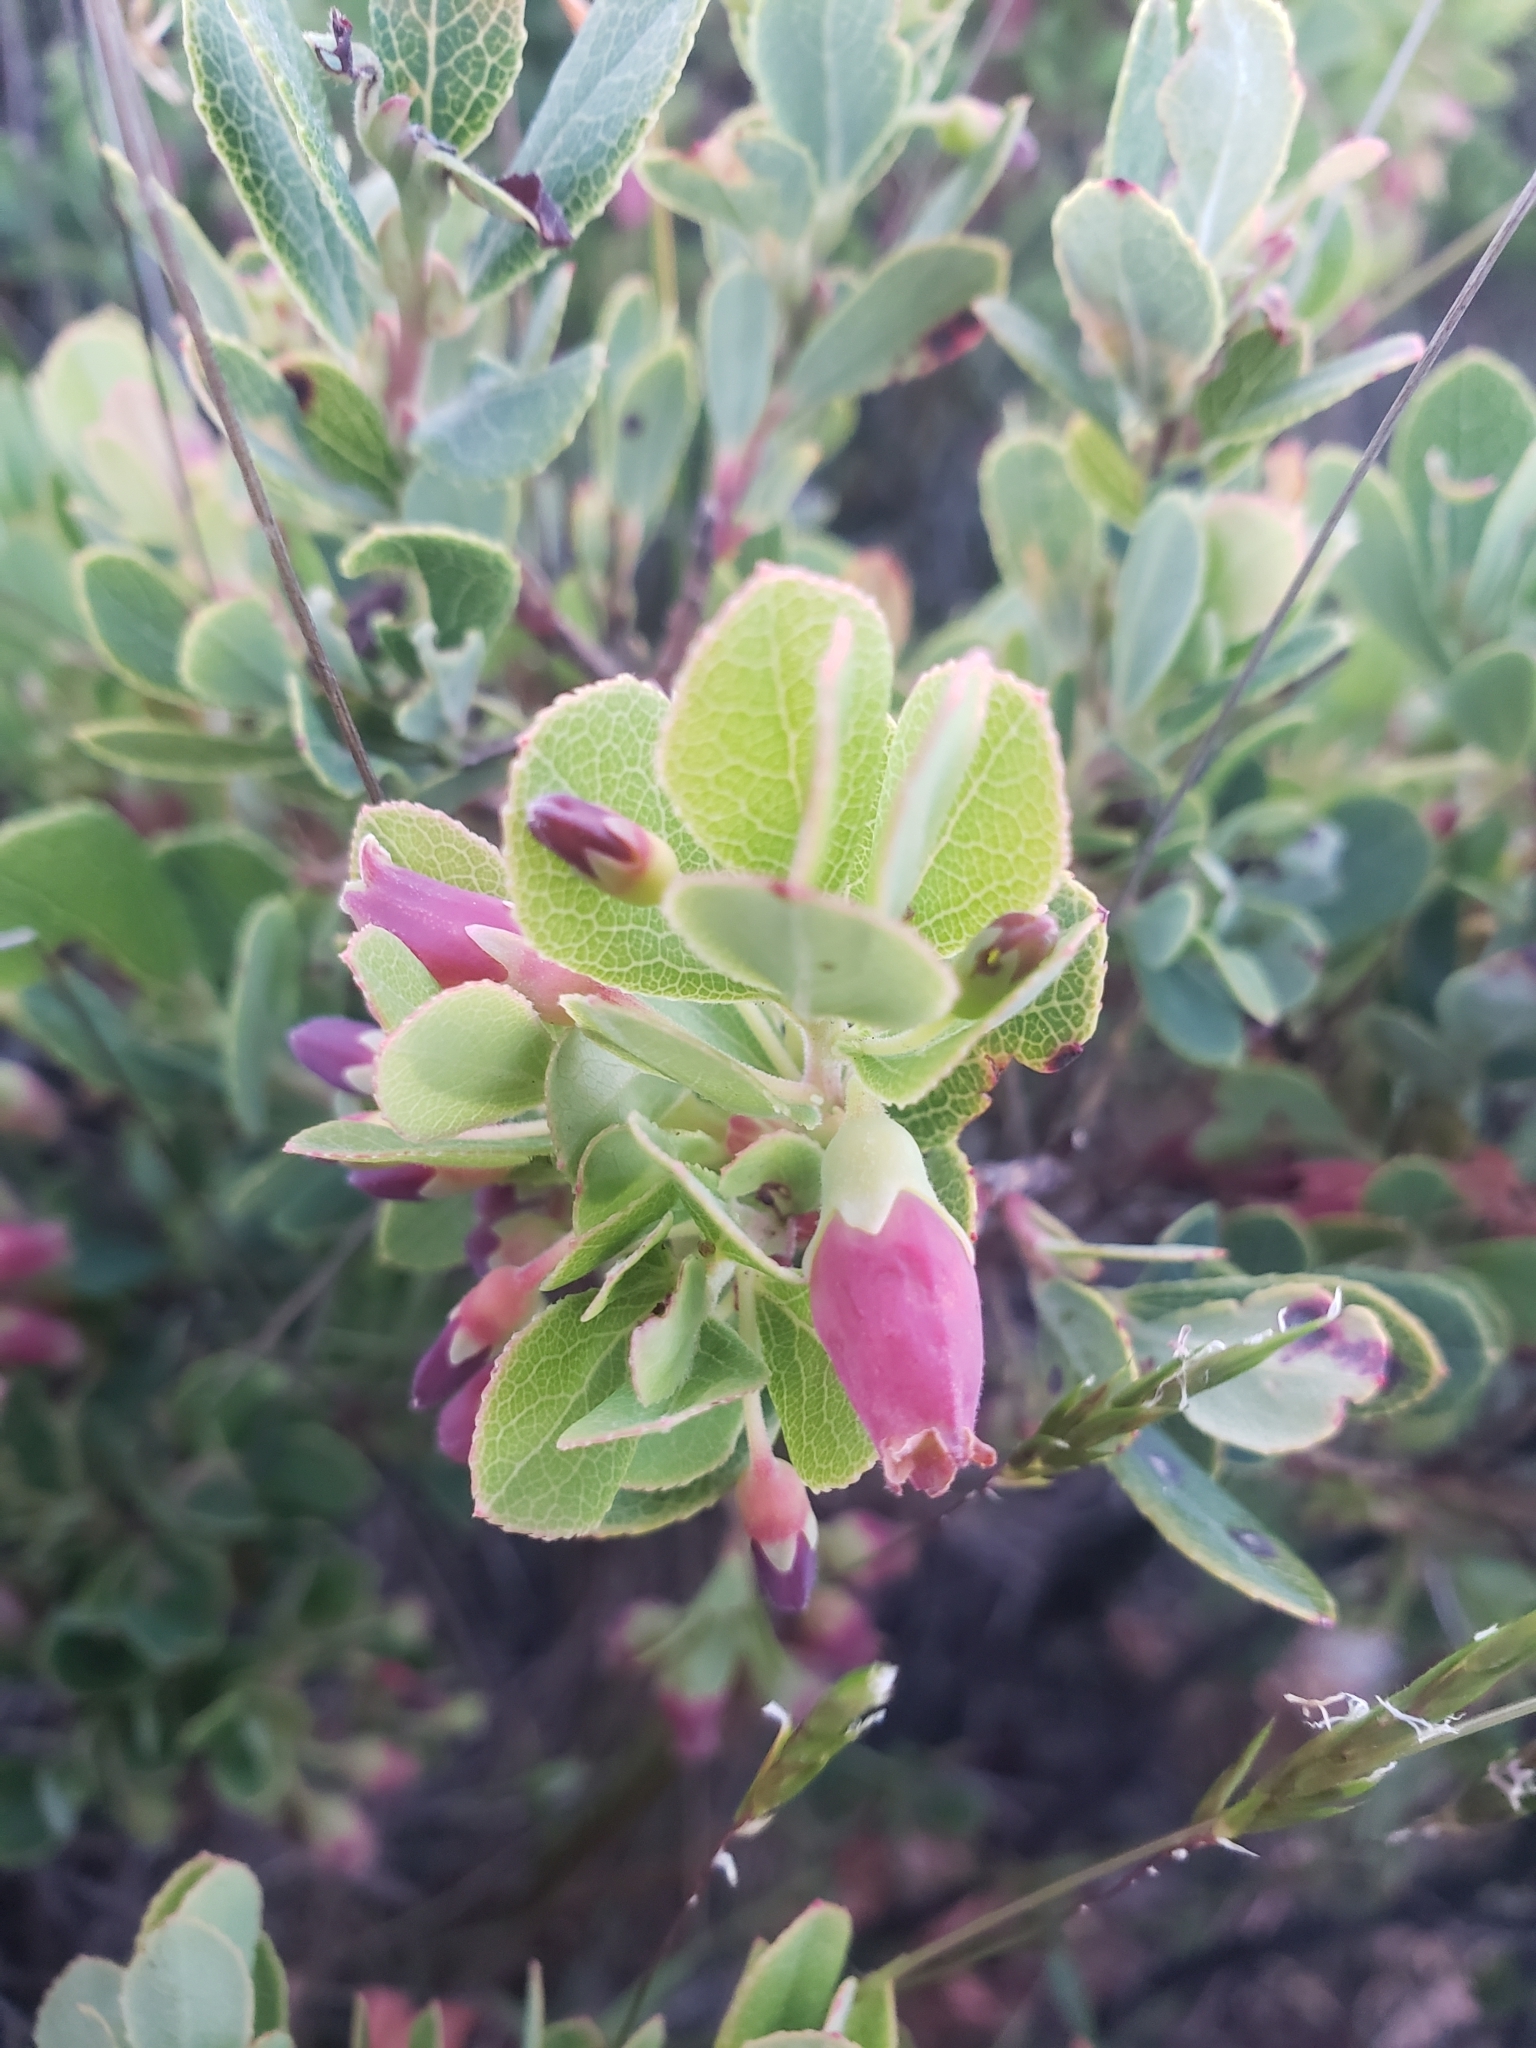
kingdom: Plantae
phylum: Tracheophyta
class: Magnoliopsida
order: Ericales
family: Ericaceae
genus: Vaccinium
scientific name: Vaccinium reticulatum
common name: Ohelo
